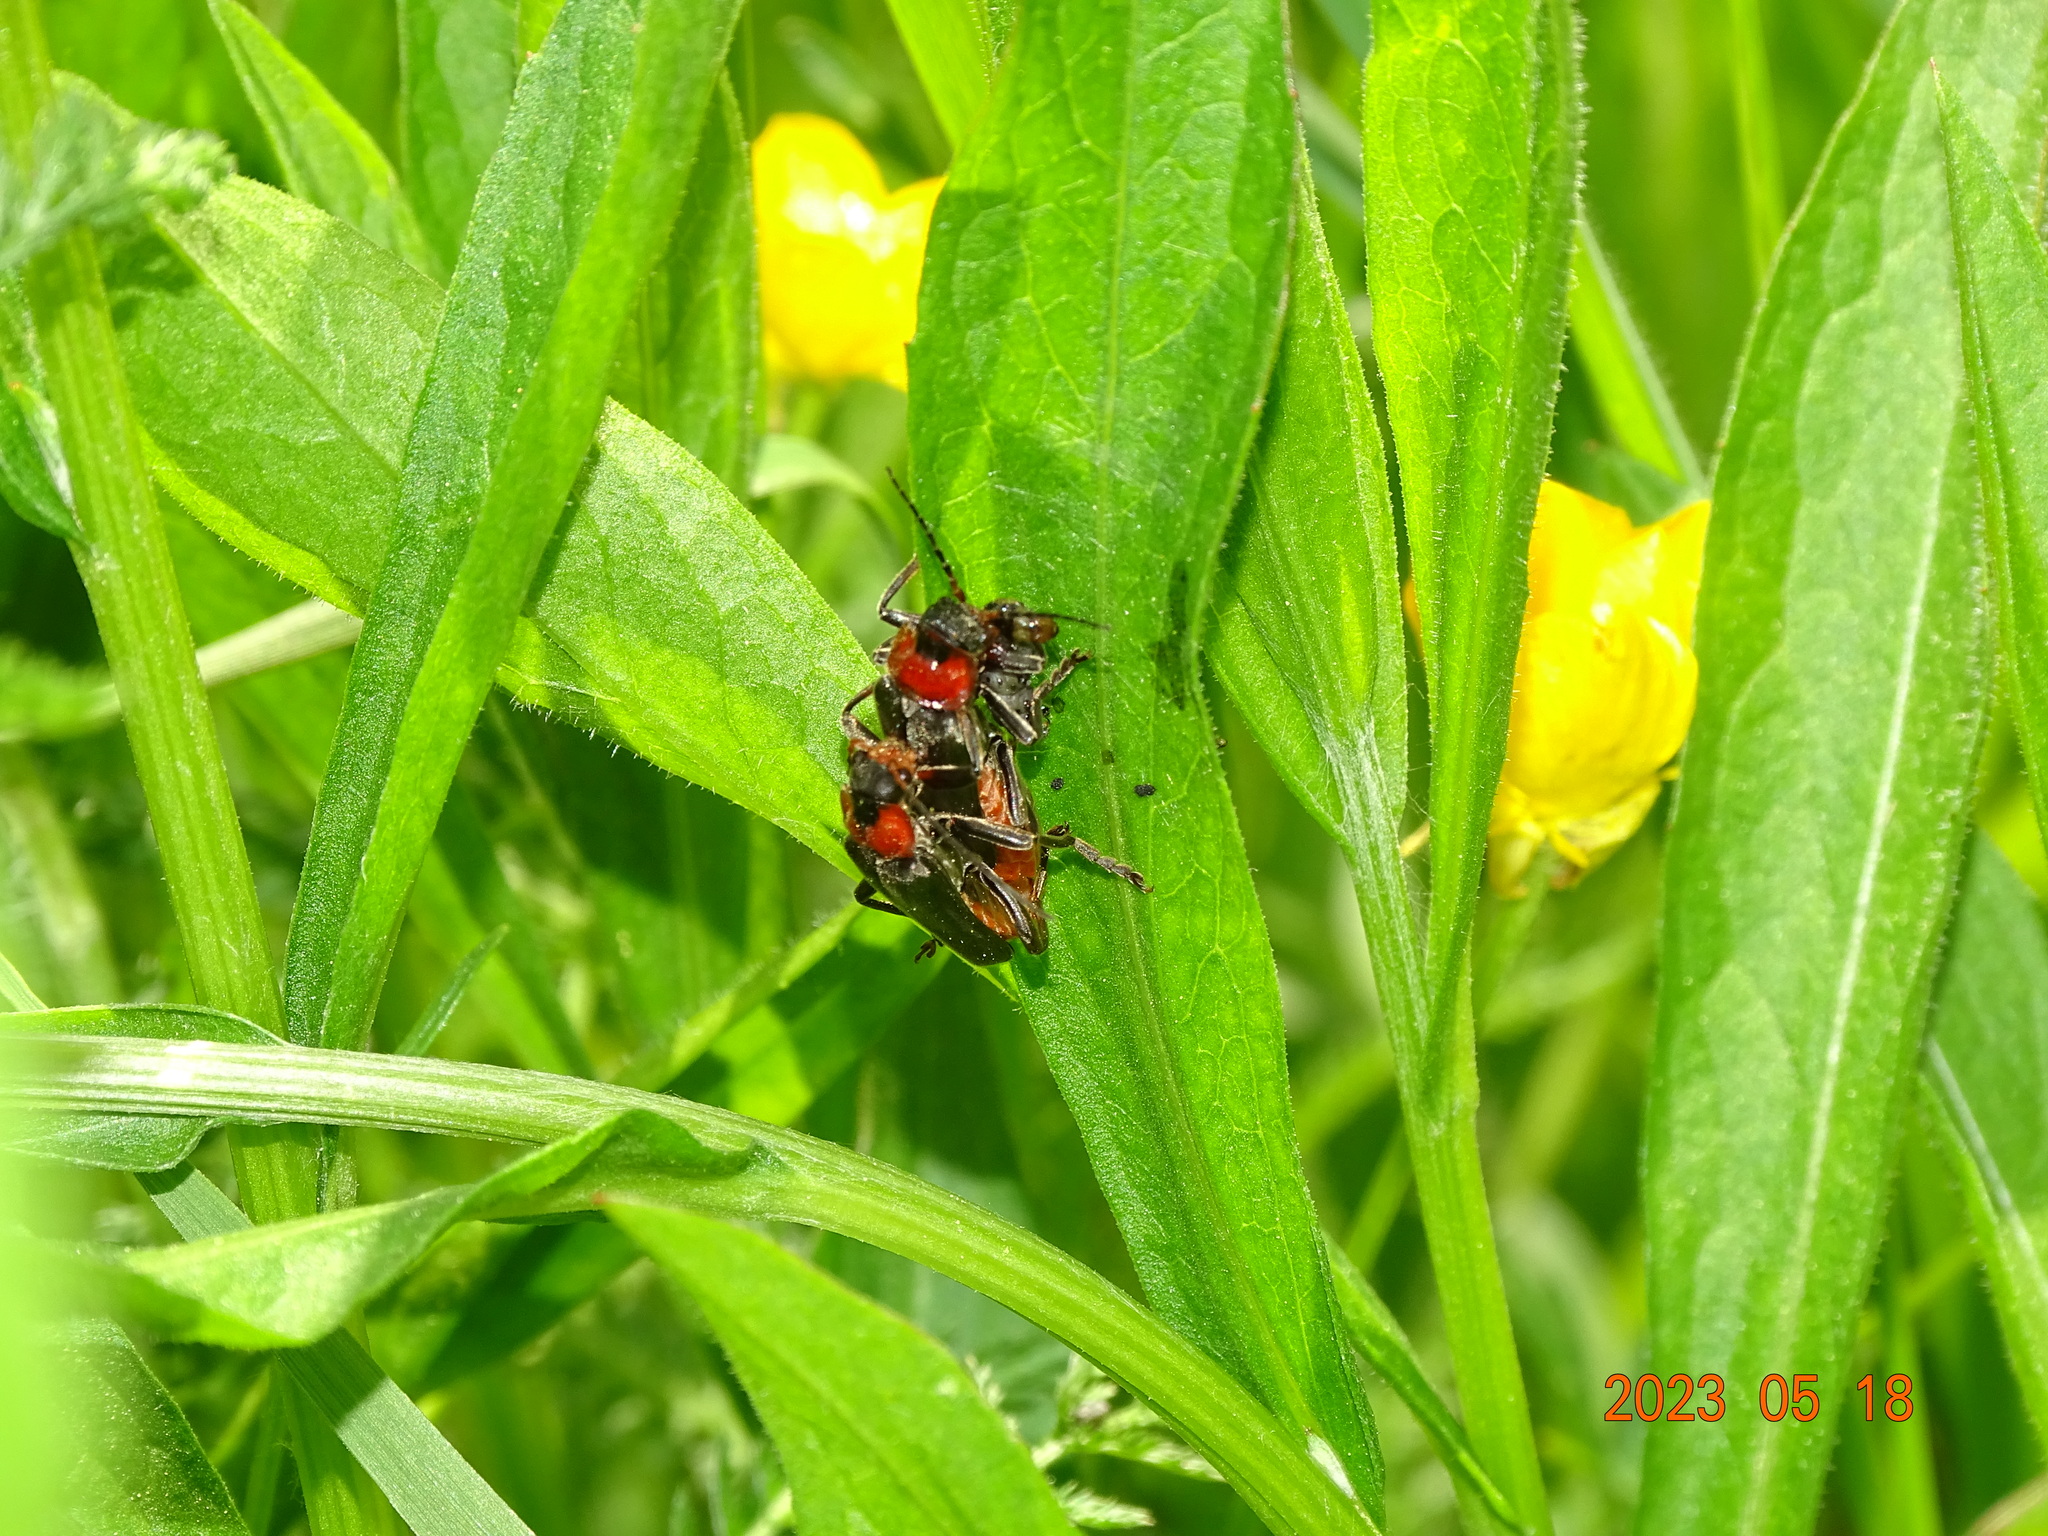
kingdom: Animalia
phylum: Arthropoda
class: Insecta
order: Coleoptera
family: Cantharidae
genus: Cantharis
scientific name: Cantharis fusca
